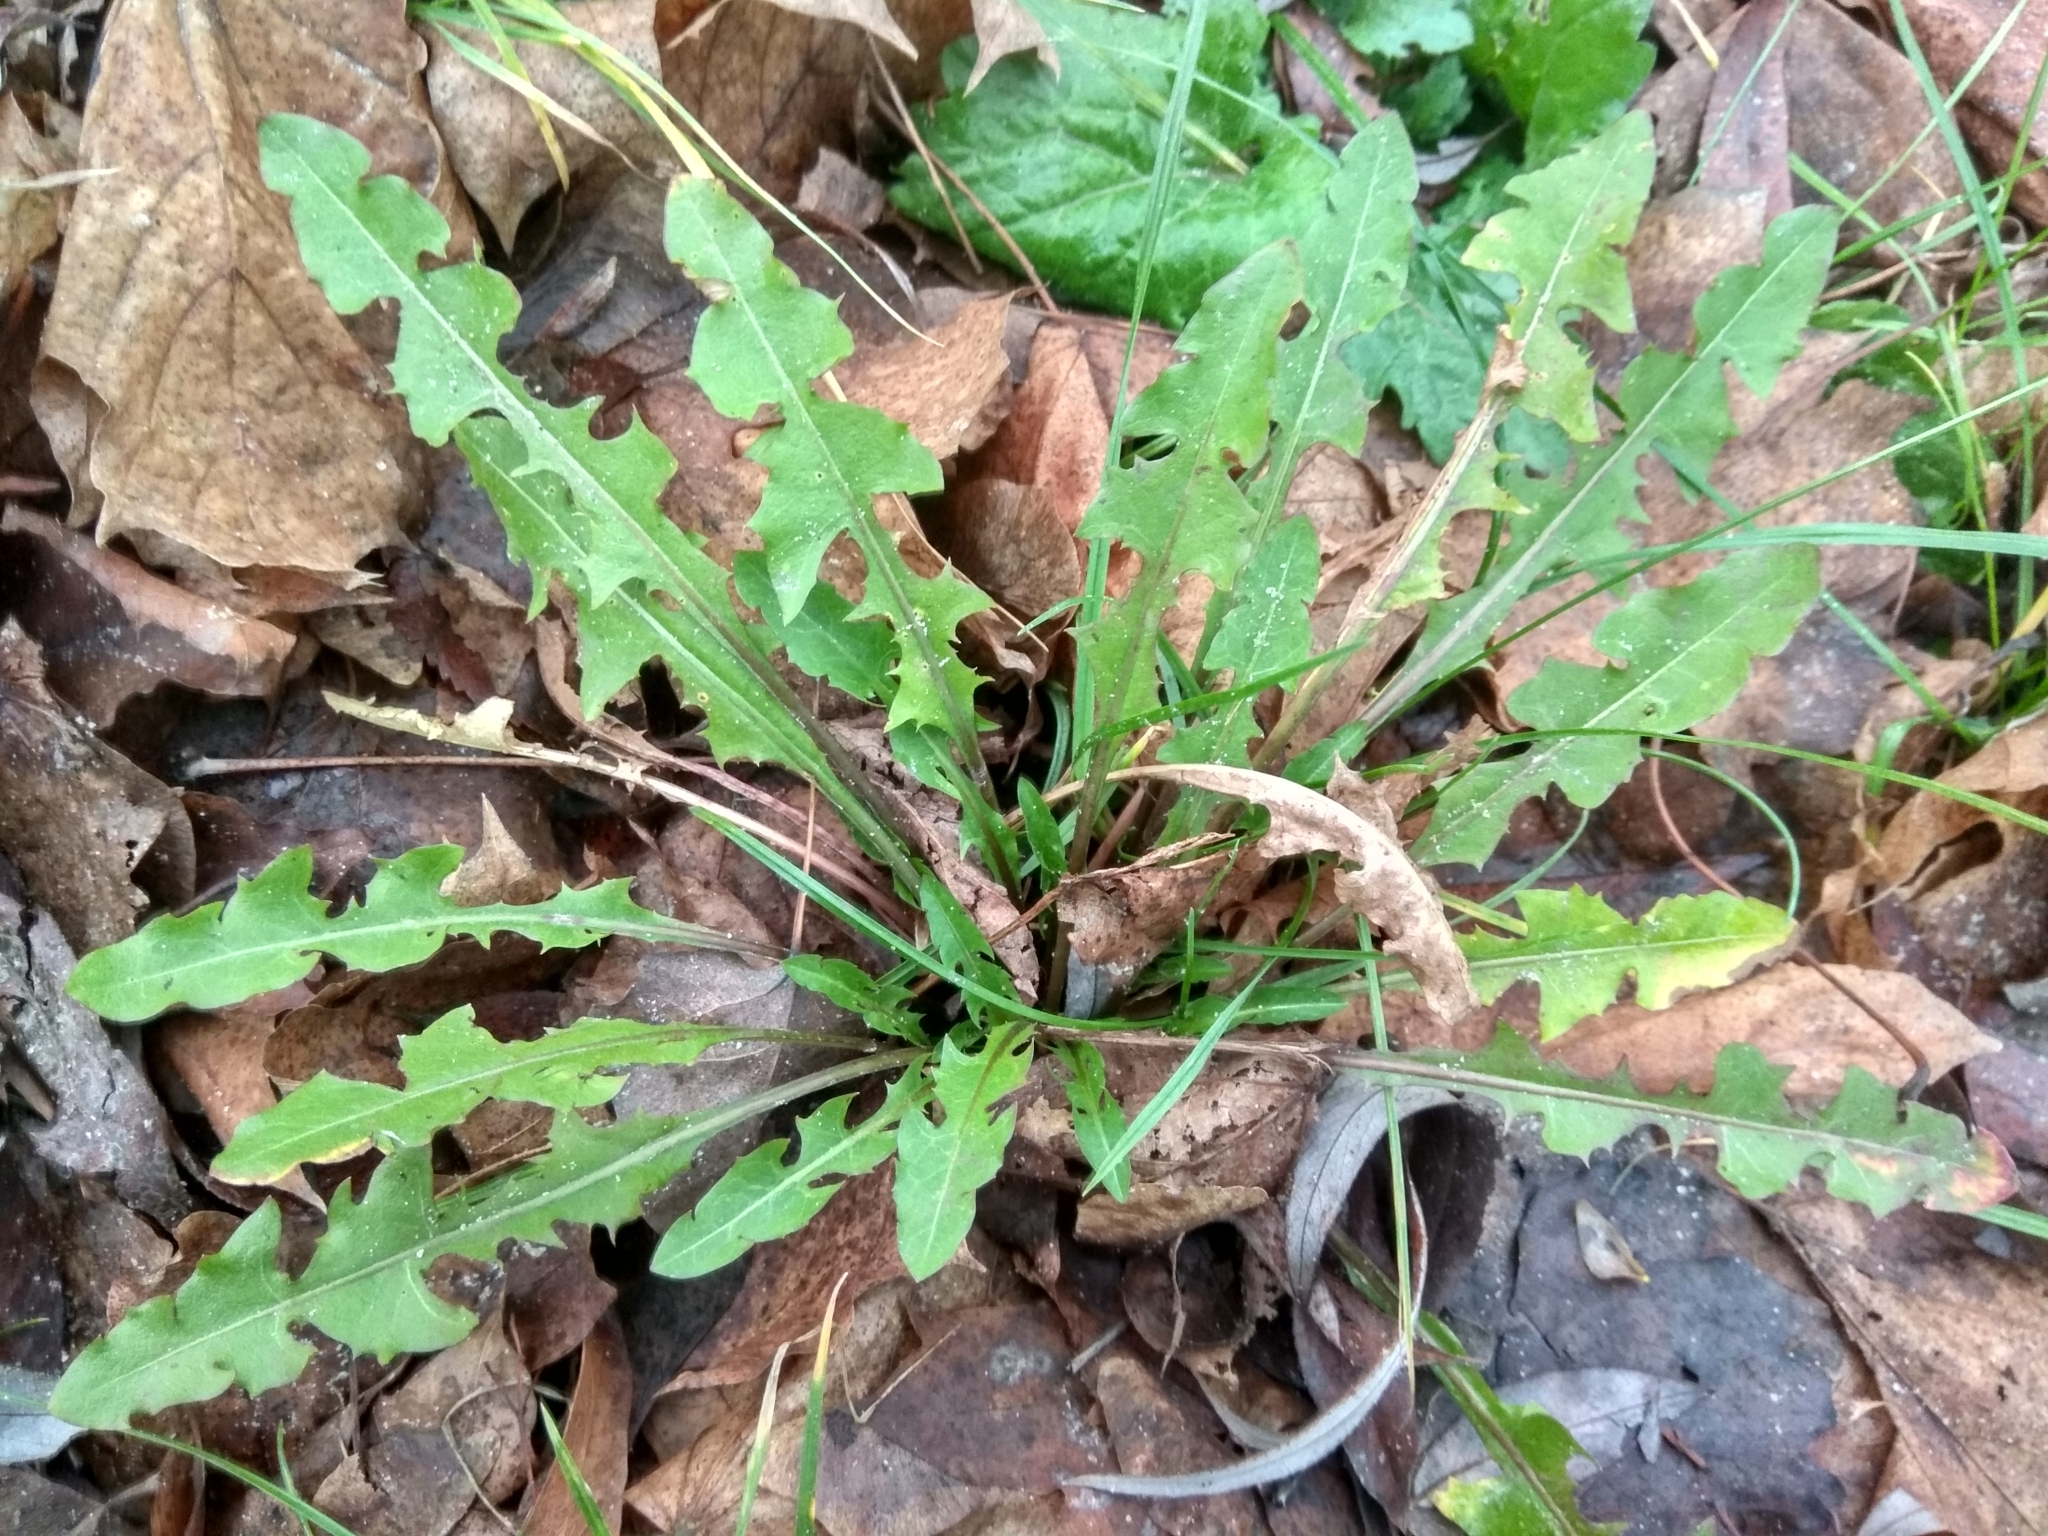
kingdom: Plantae
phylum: Tracheophyta
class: Magnoliopsida
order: Asterales
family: Asteraceae
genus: Taraxacum
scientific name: Taraxacum officinale
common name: Common dandelion
